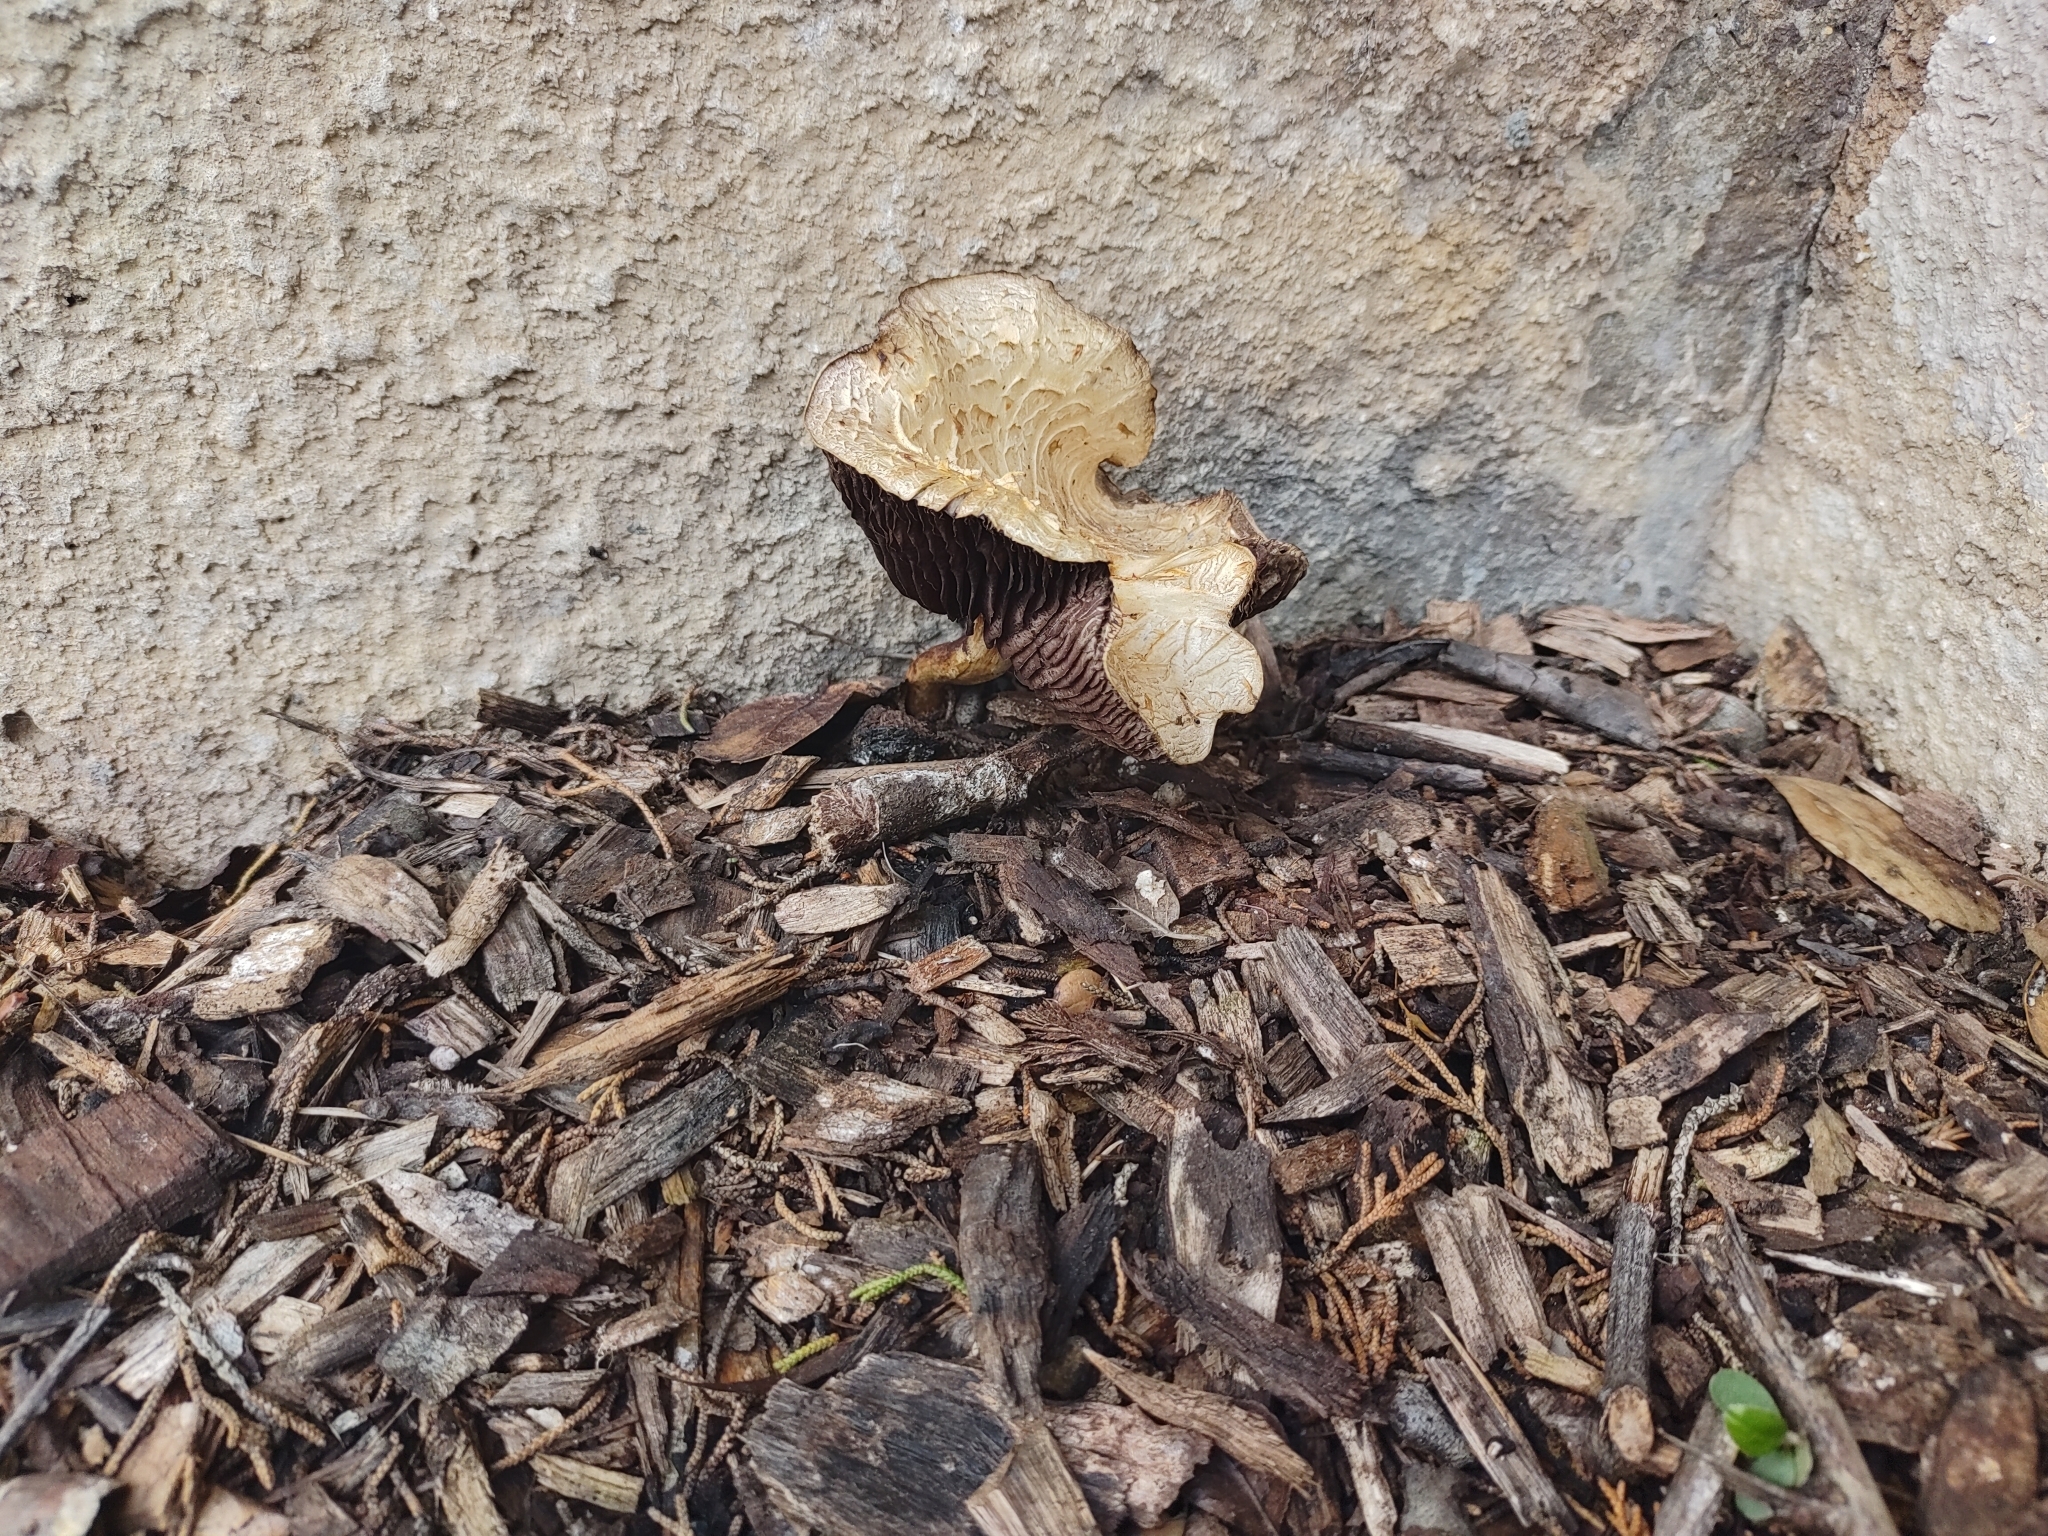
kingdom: Fungi
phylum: Basidiomycota
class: Agaricomycetes
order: Agaricales
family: Strophariaceae
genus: Leratiomyces
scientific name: Leratiomyces percevalii
